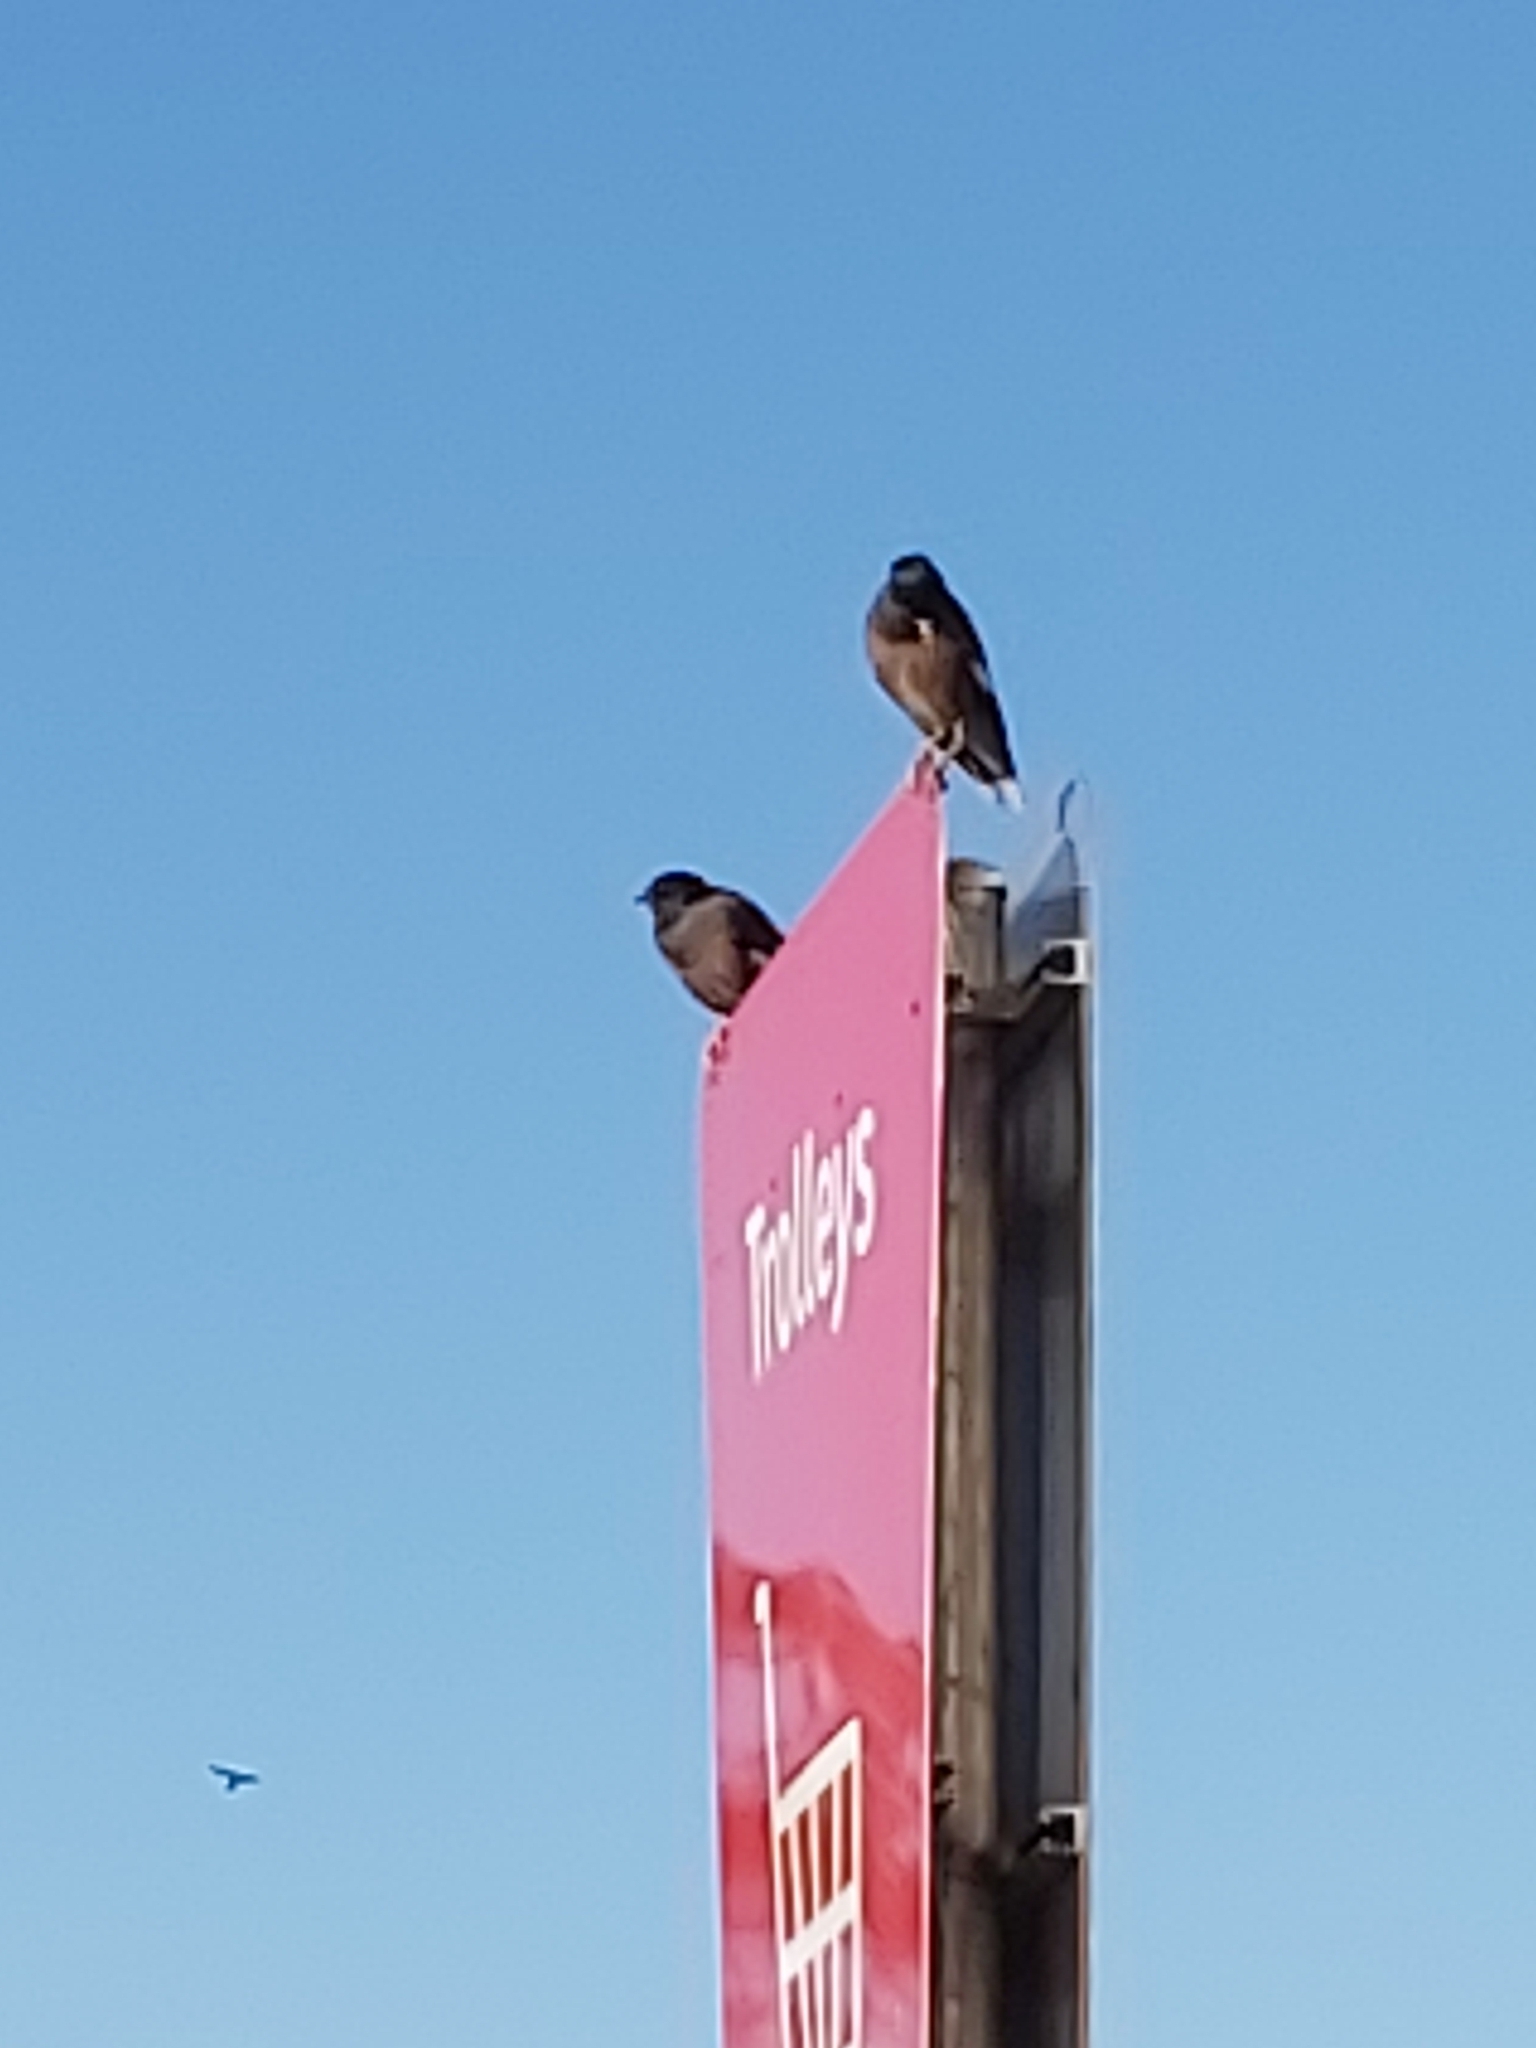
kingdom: Animalia
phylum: Chordata
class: Aves
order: Passeriformes
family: Sturnidae
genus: Acridotheres
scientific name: Acridotheres tristis
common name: Common myna
